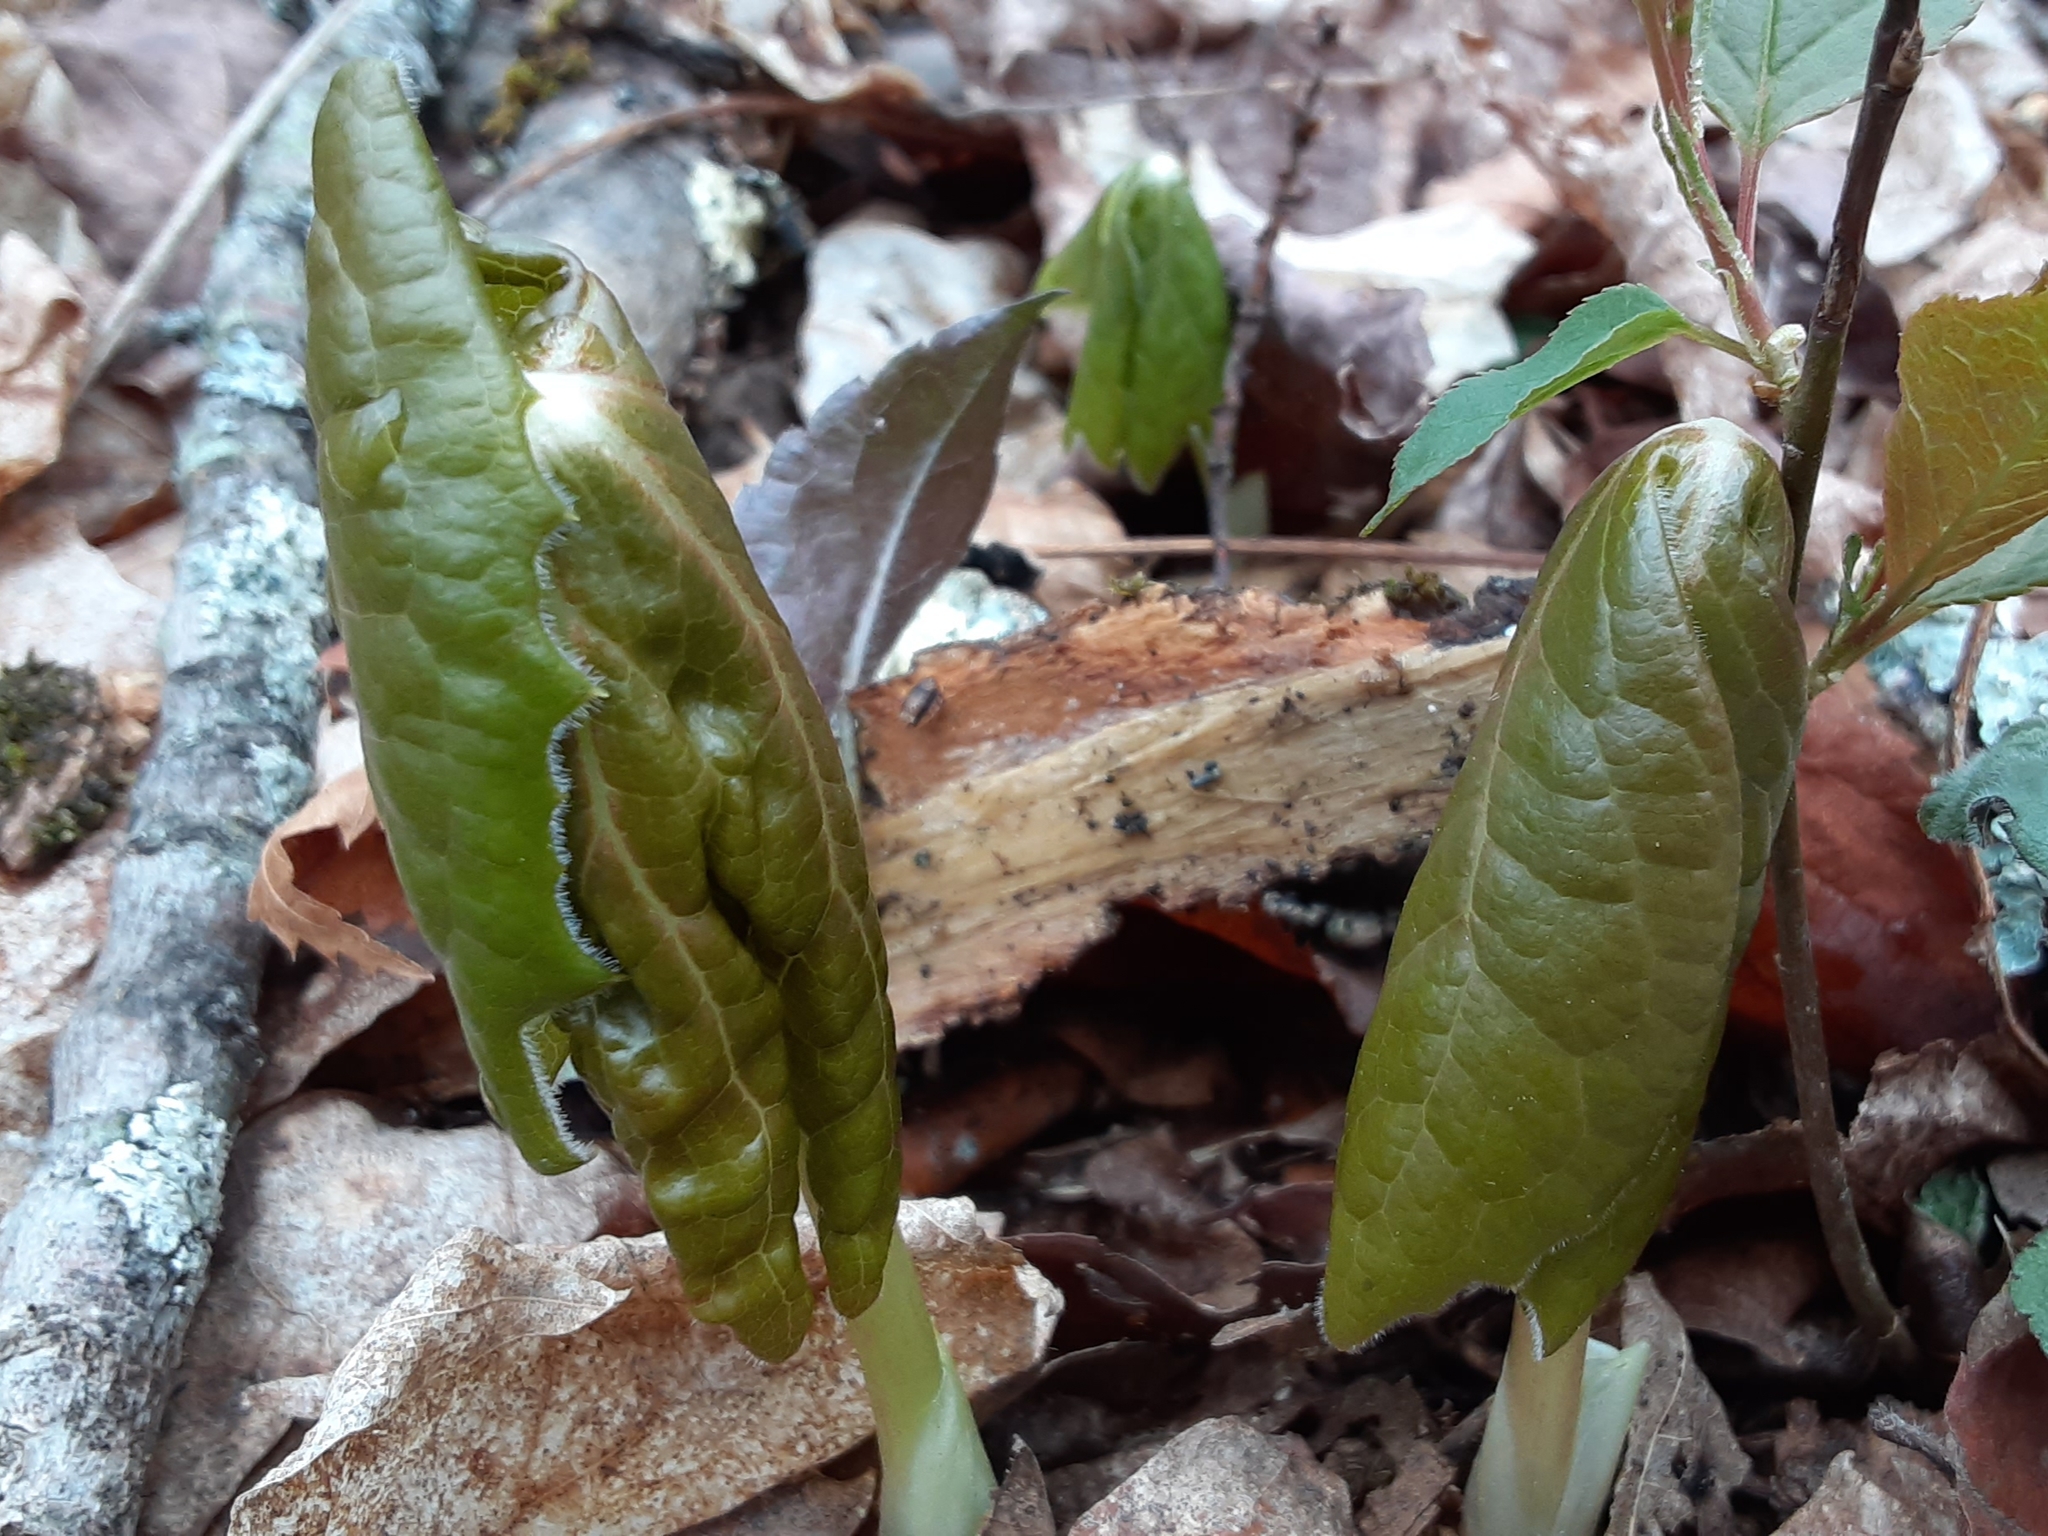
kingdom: Plantae
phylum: Tracheophyta
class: Magnoliopsida
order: Ranunculales
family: Berberidaceae
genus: Podophyllum
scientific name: Podophyllum peltatum
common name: Wild mandrake
